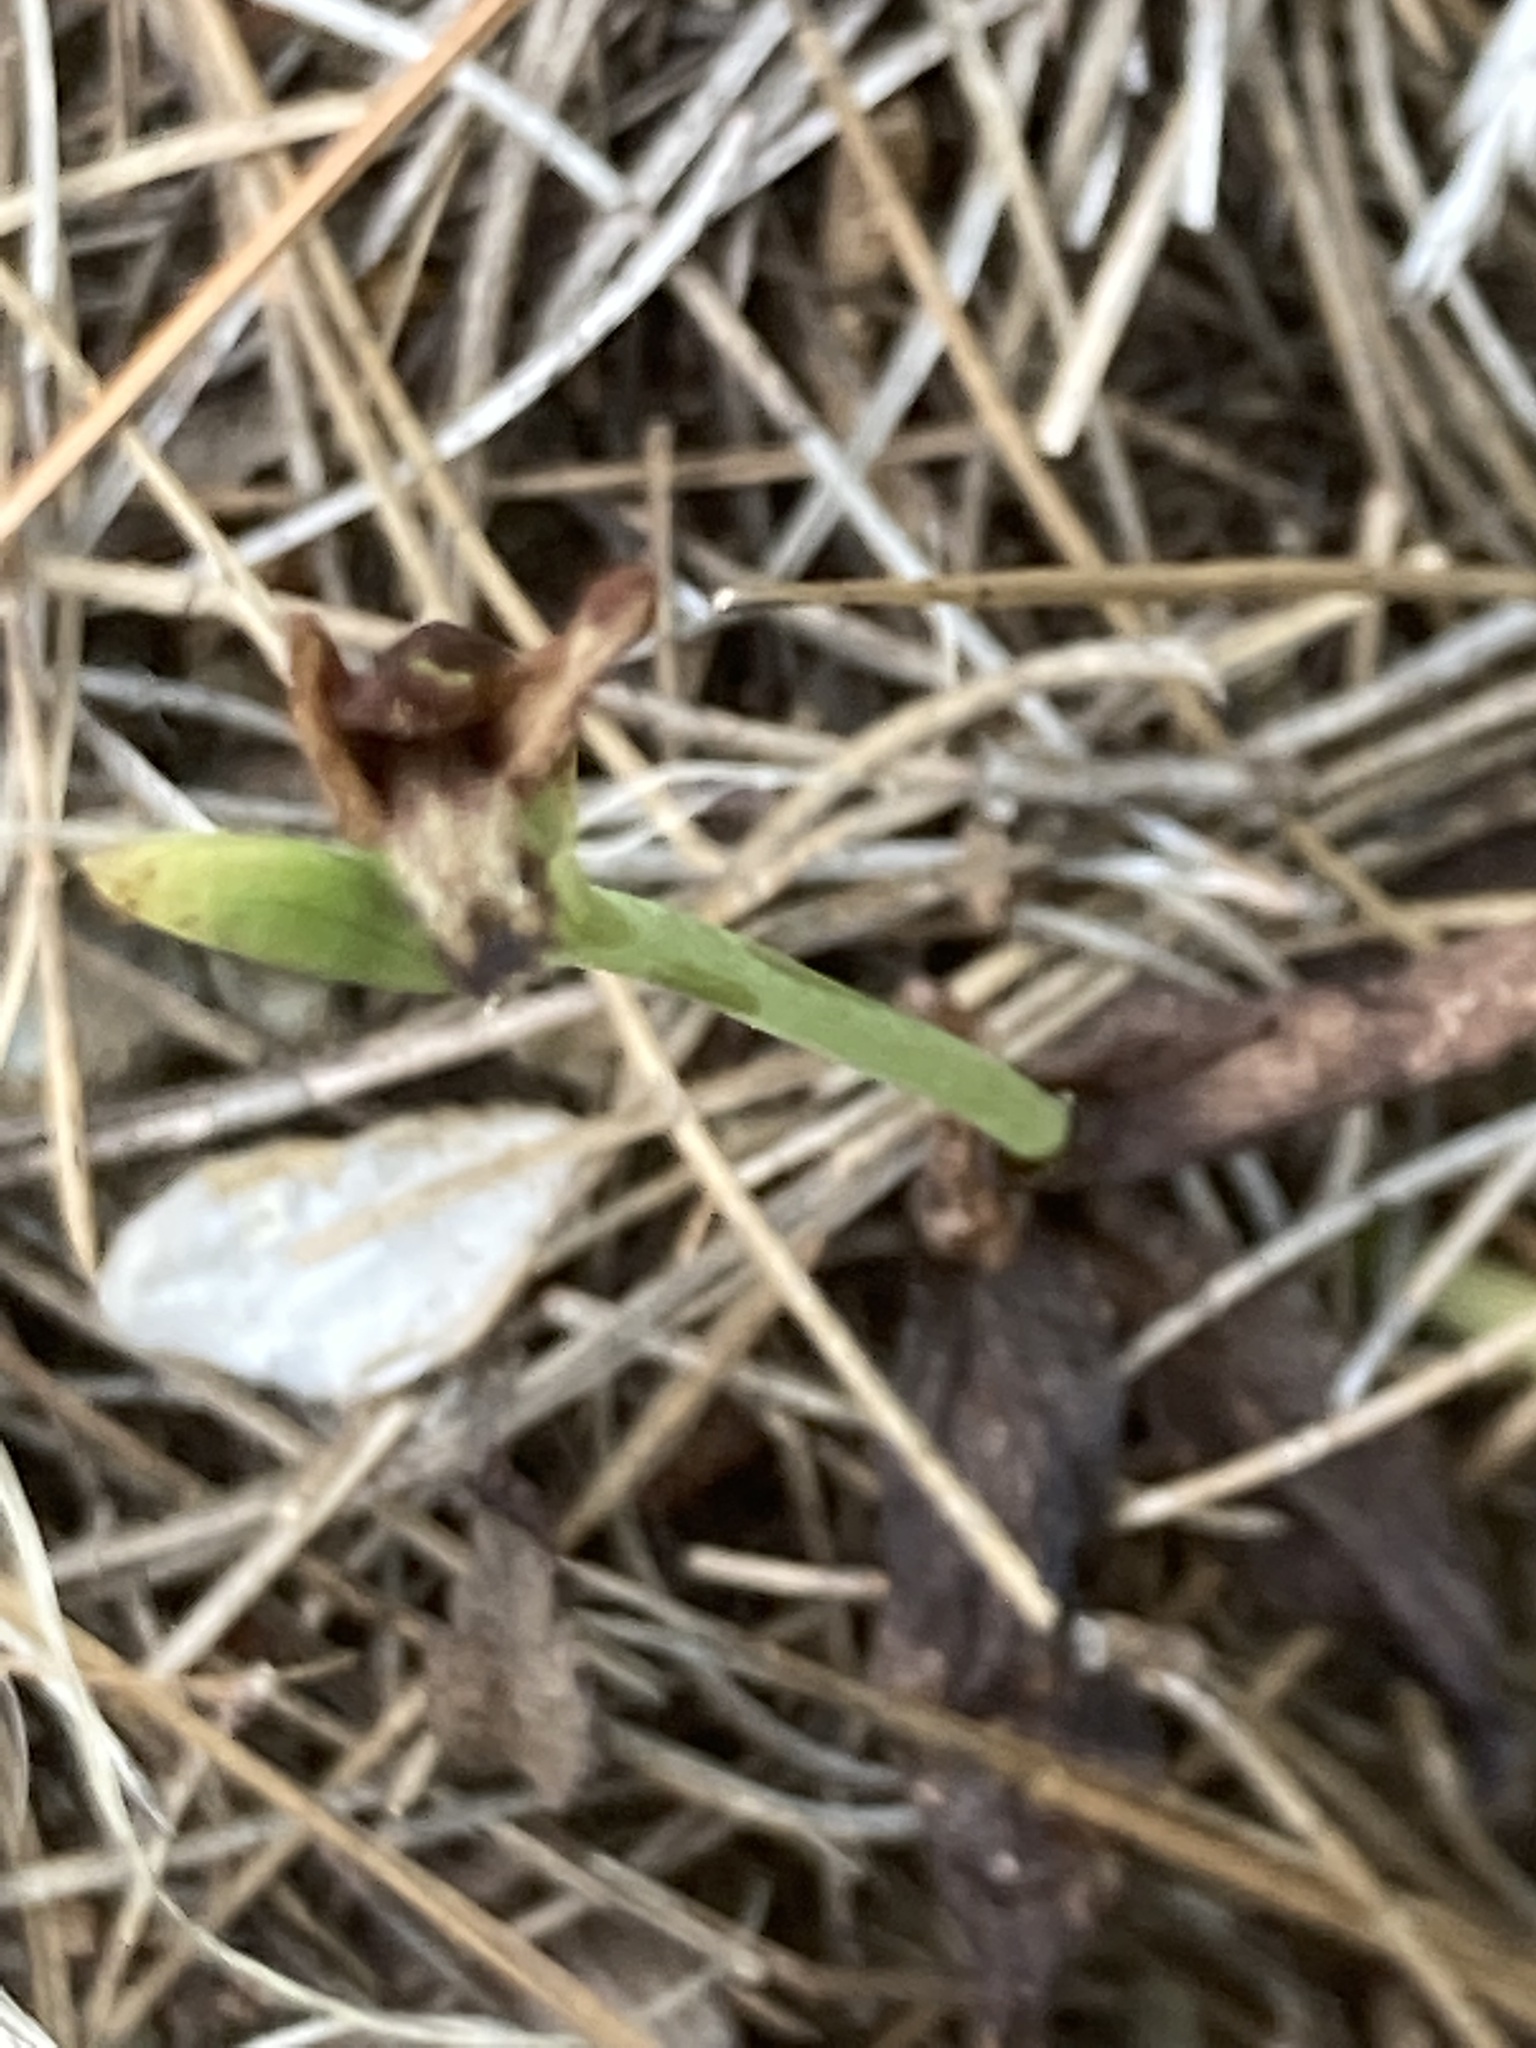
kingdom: Plantae
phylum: Tracheophyta
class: Liliopsida
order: Asparagales
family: Orchidaceae
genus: Ophrys
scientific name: Ophrys
